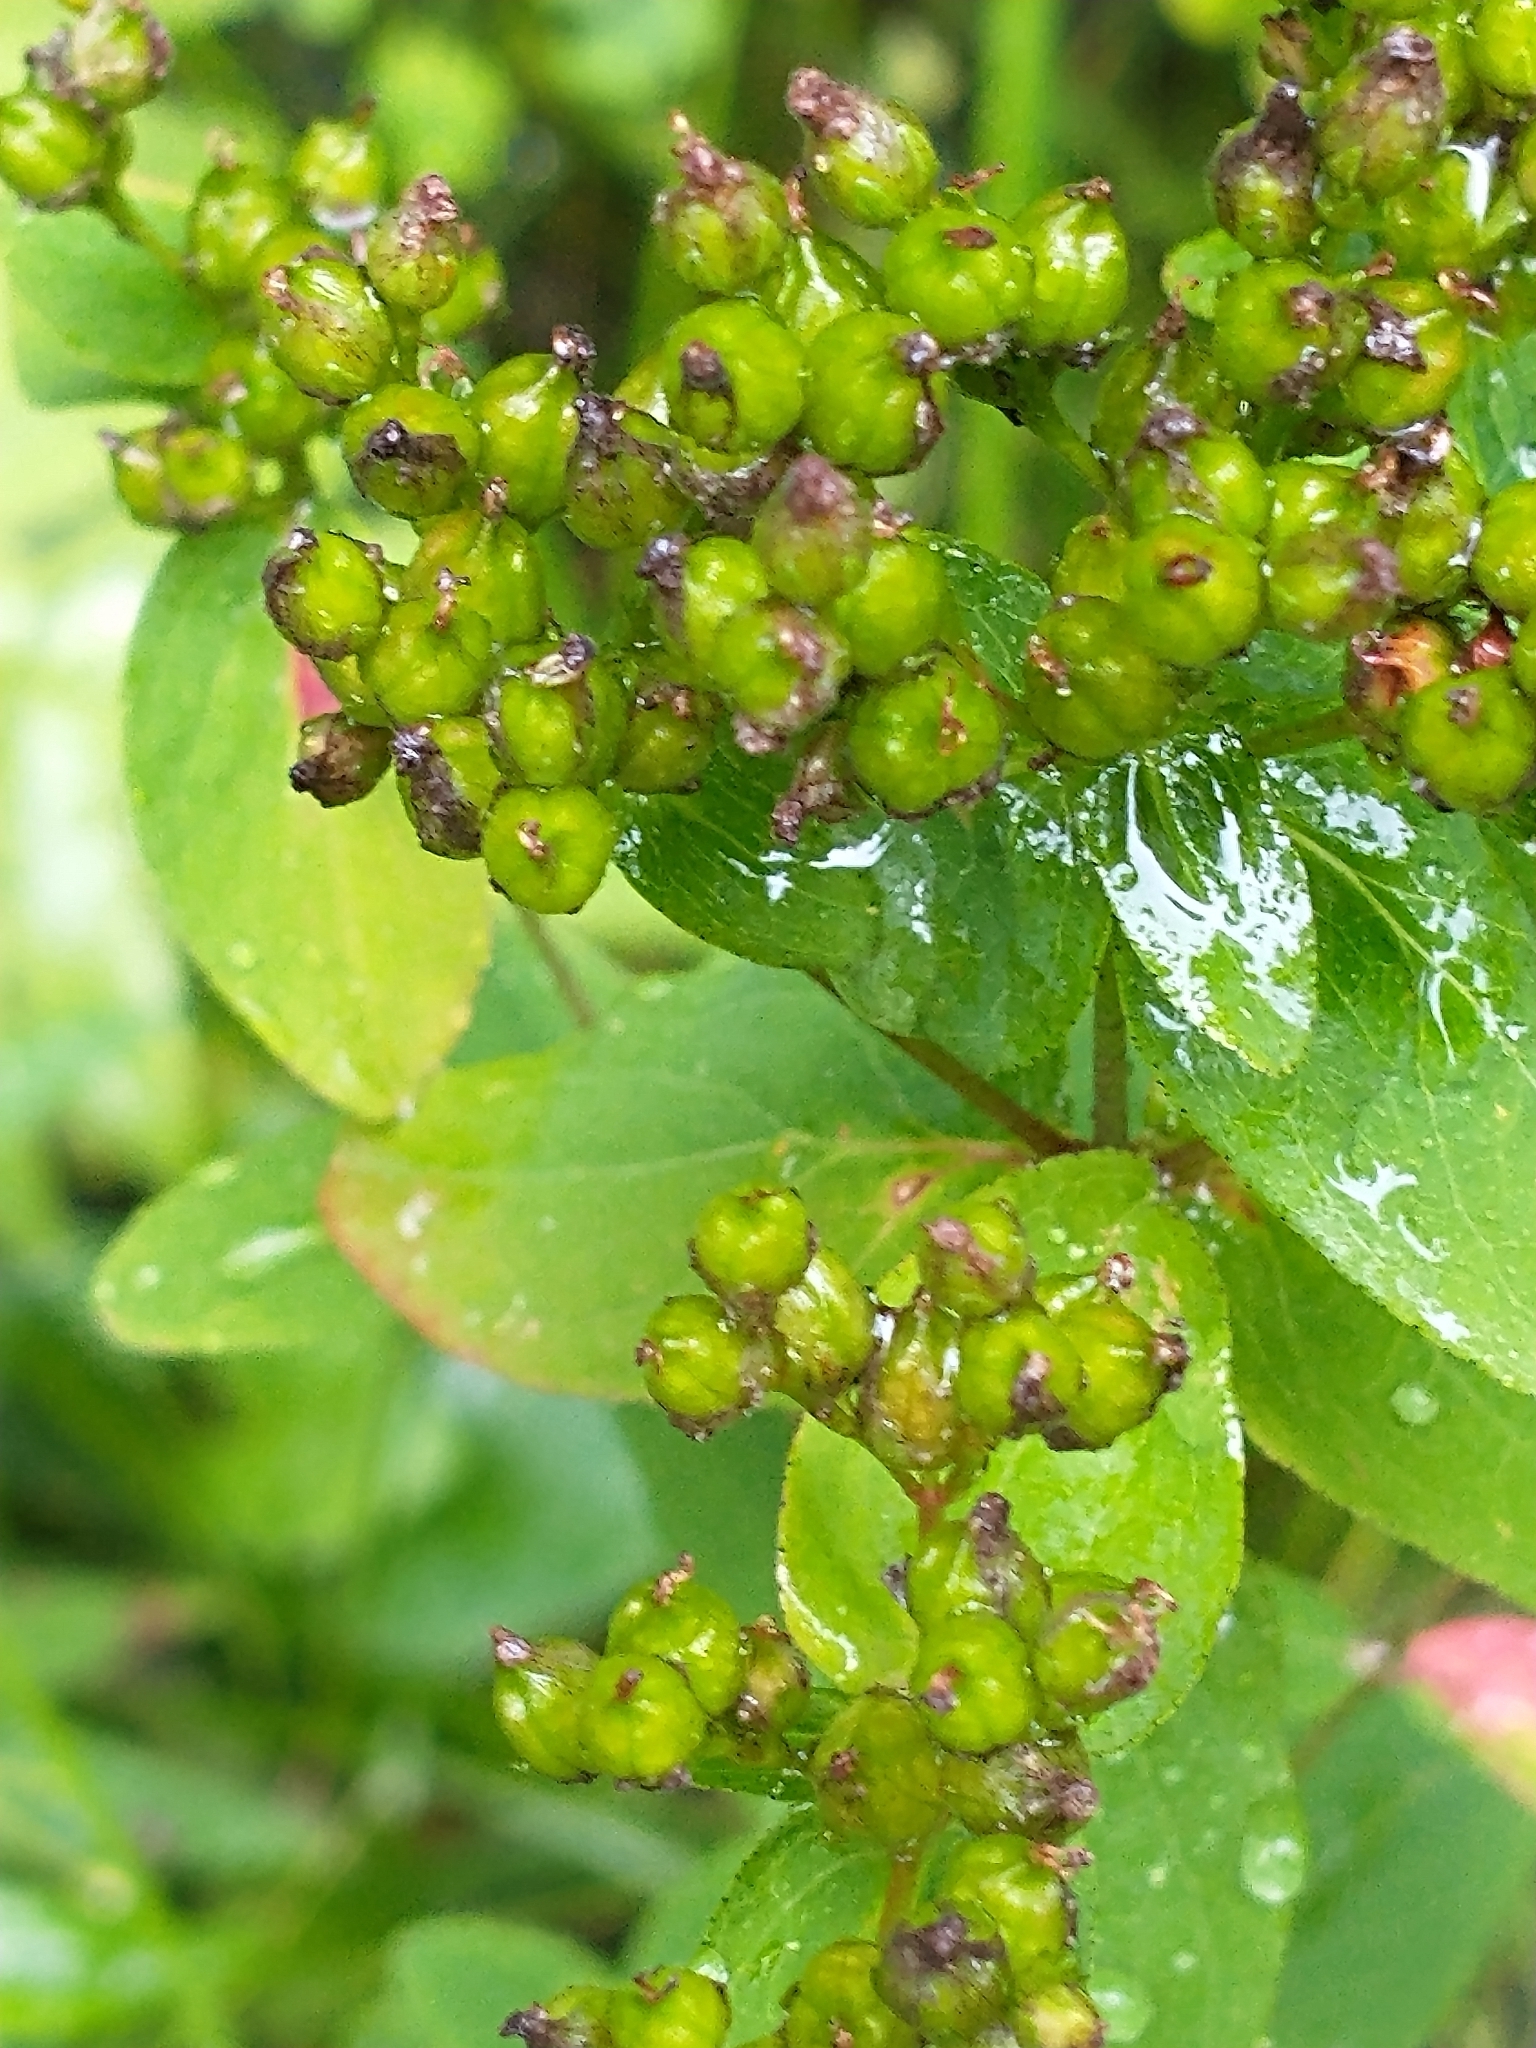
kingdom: Plantae
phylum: Tracheophyta
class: Magnoliopsida
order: Malpighiales
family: Hypericaceae
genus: Hypericum
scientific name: Hypericum punctatum
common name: Spotted st. john's-wort
